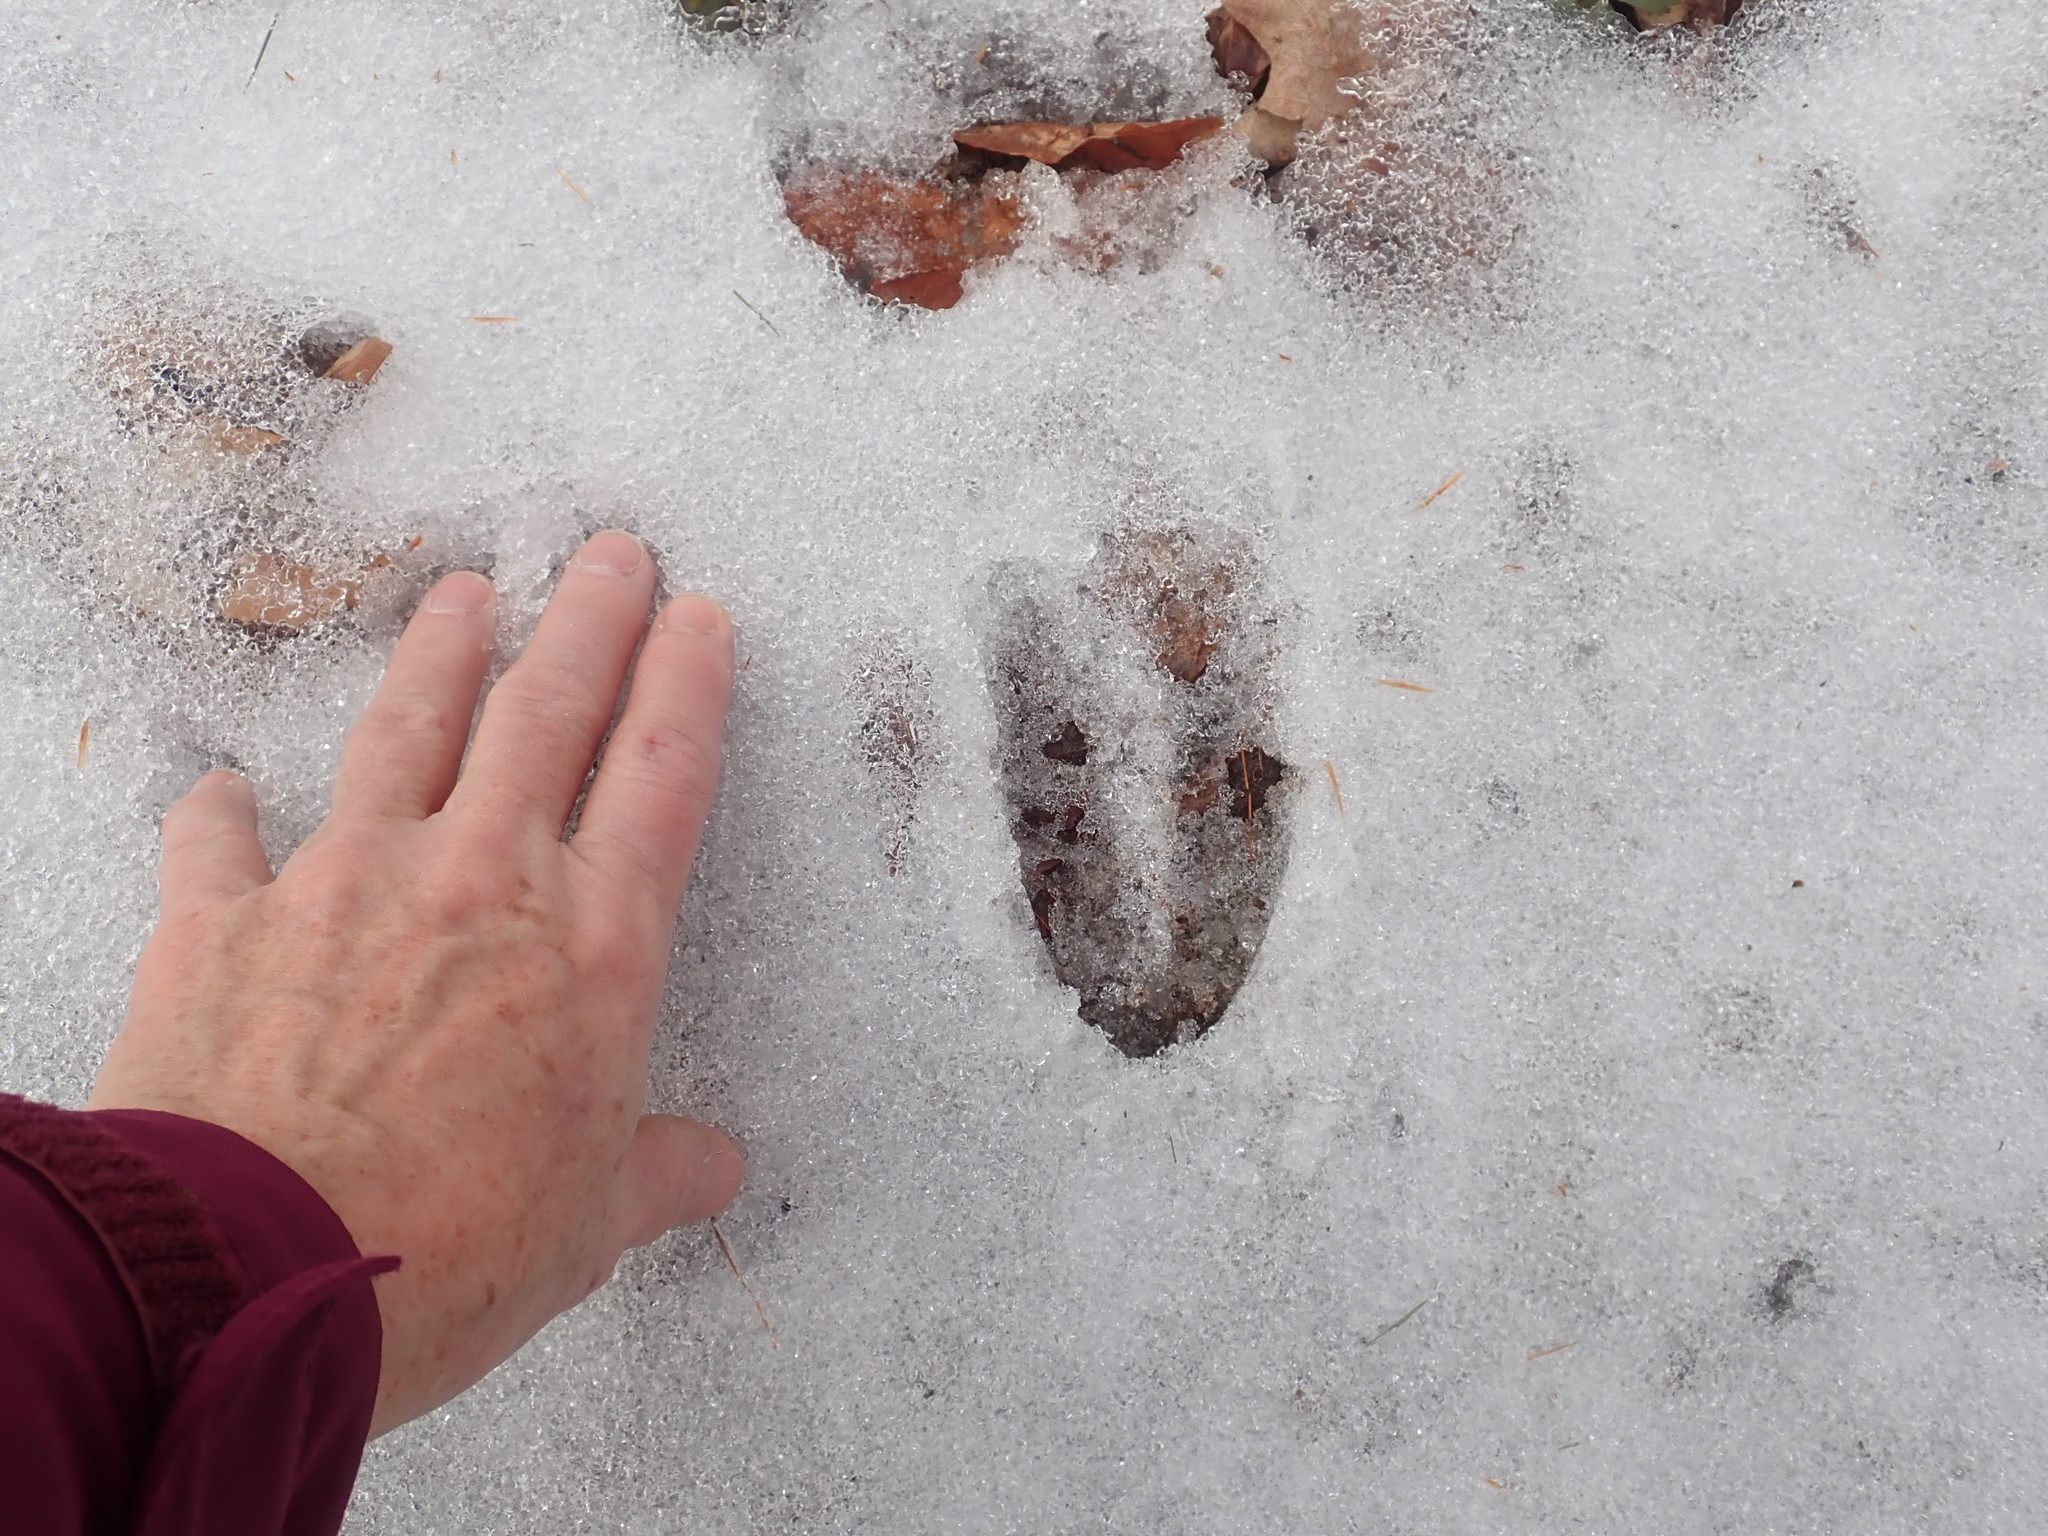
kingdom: Animalia
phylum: Chordata
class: Mammalia
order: Artiodactyla
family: Cervidae
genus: Odocoileus
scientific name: Odocoileus virginianus
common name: White-tailed deer
